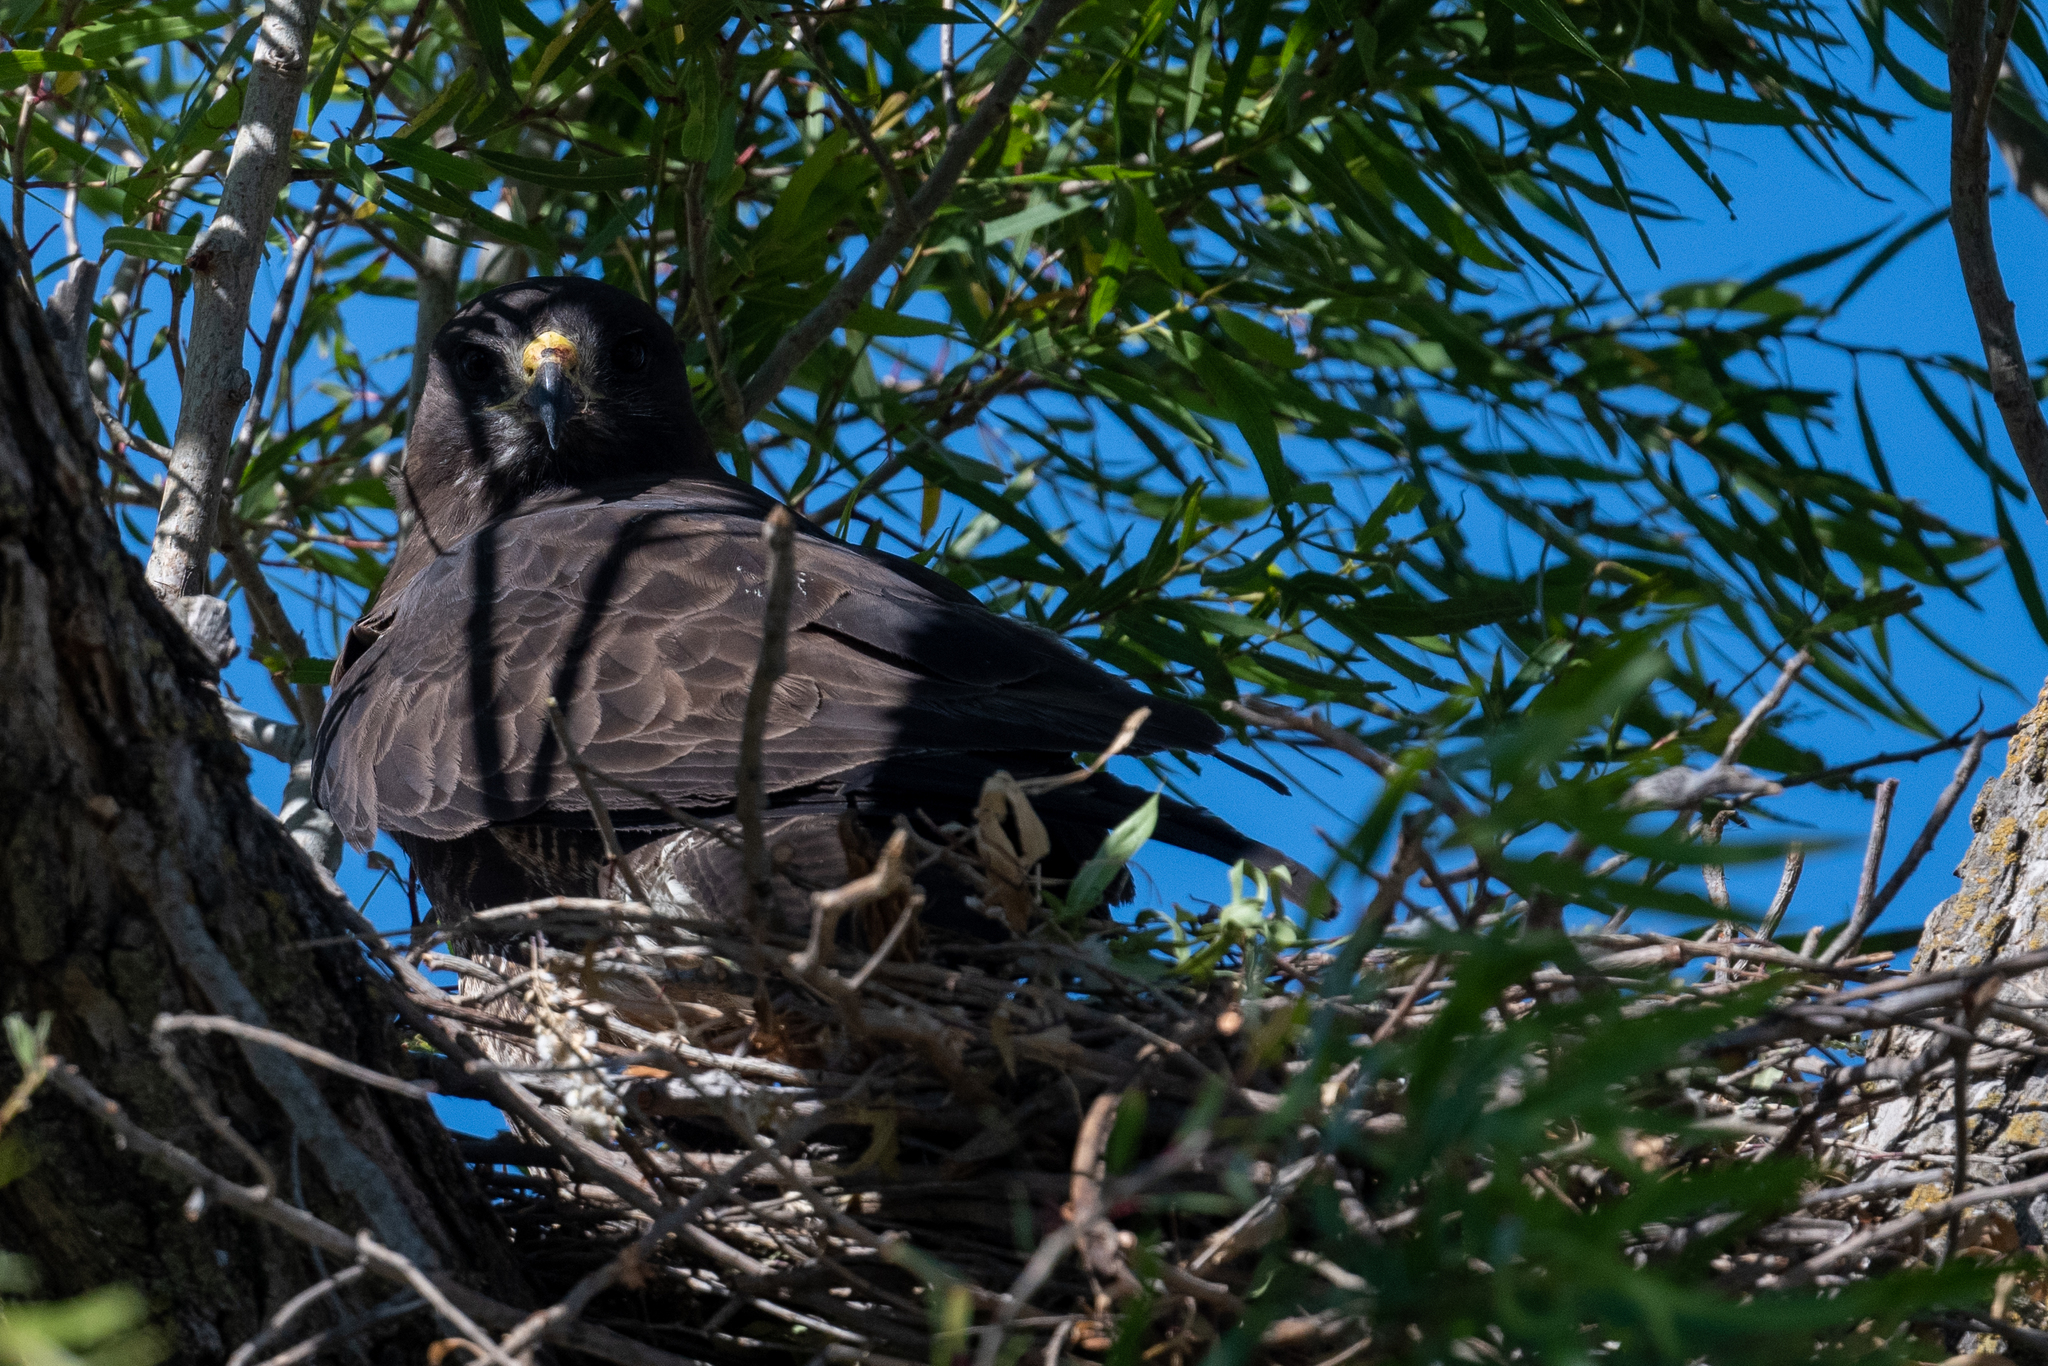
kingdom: Animalia
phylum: Chordata
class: Aves
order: Accipitriformes
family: Accipitridae
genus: Buteo
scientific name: Buteo swainsoni
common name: Swainson's hawk
